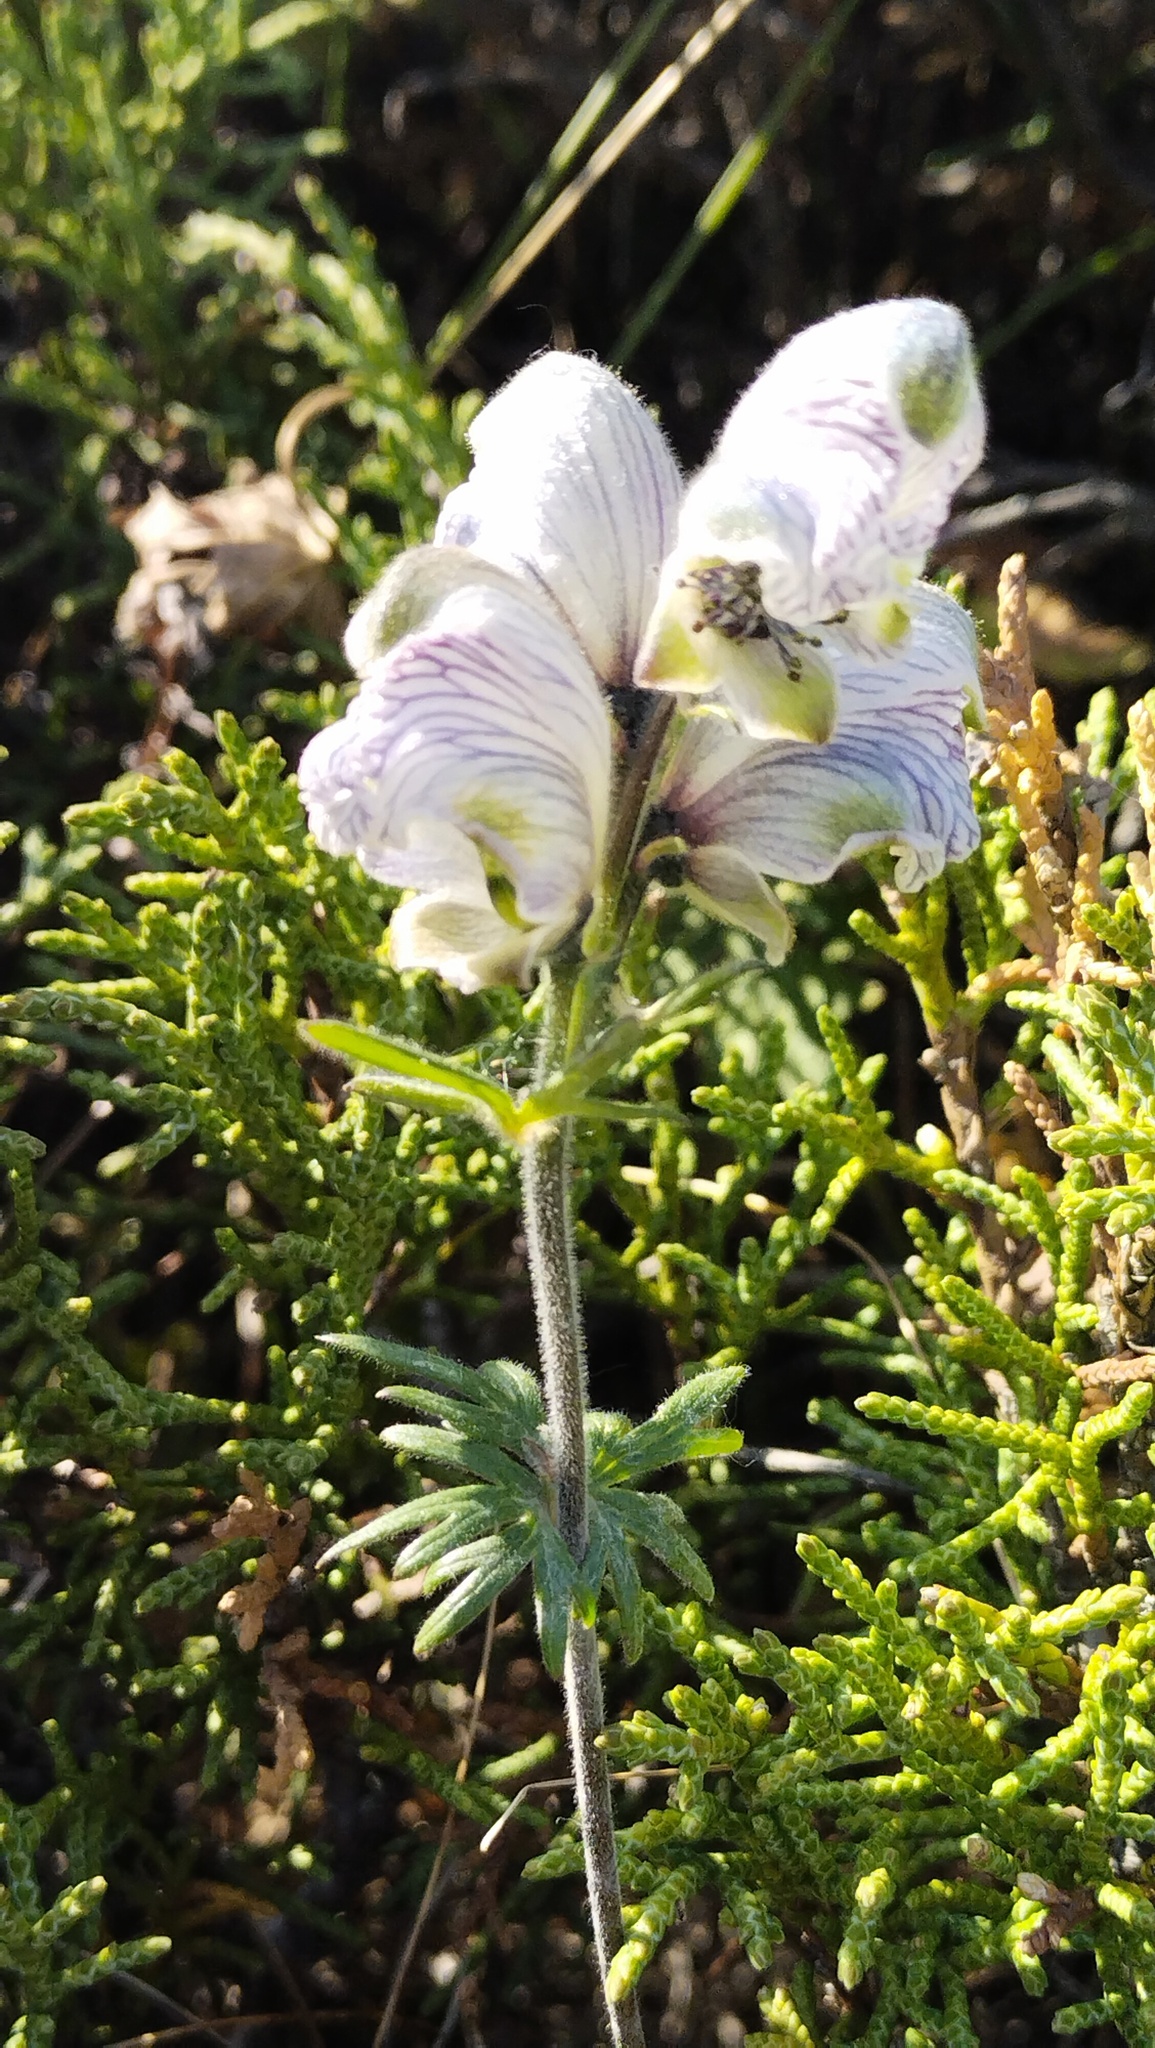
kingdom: Plantae
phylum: Tracheophyta
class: Magnoliopsida
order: Ranunculales
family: Ranunculaceae
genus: Aconitum
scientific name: Aconitum rotundifolium
